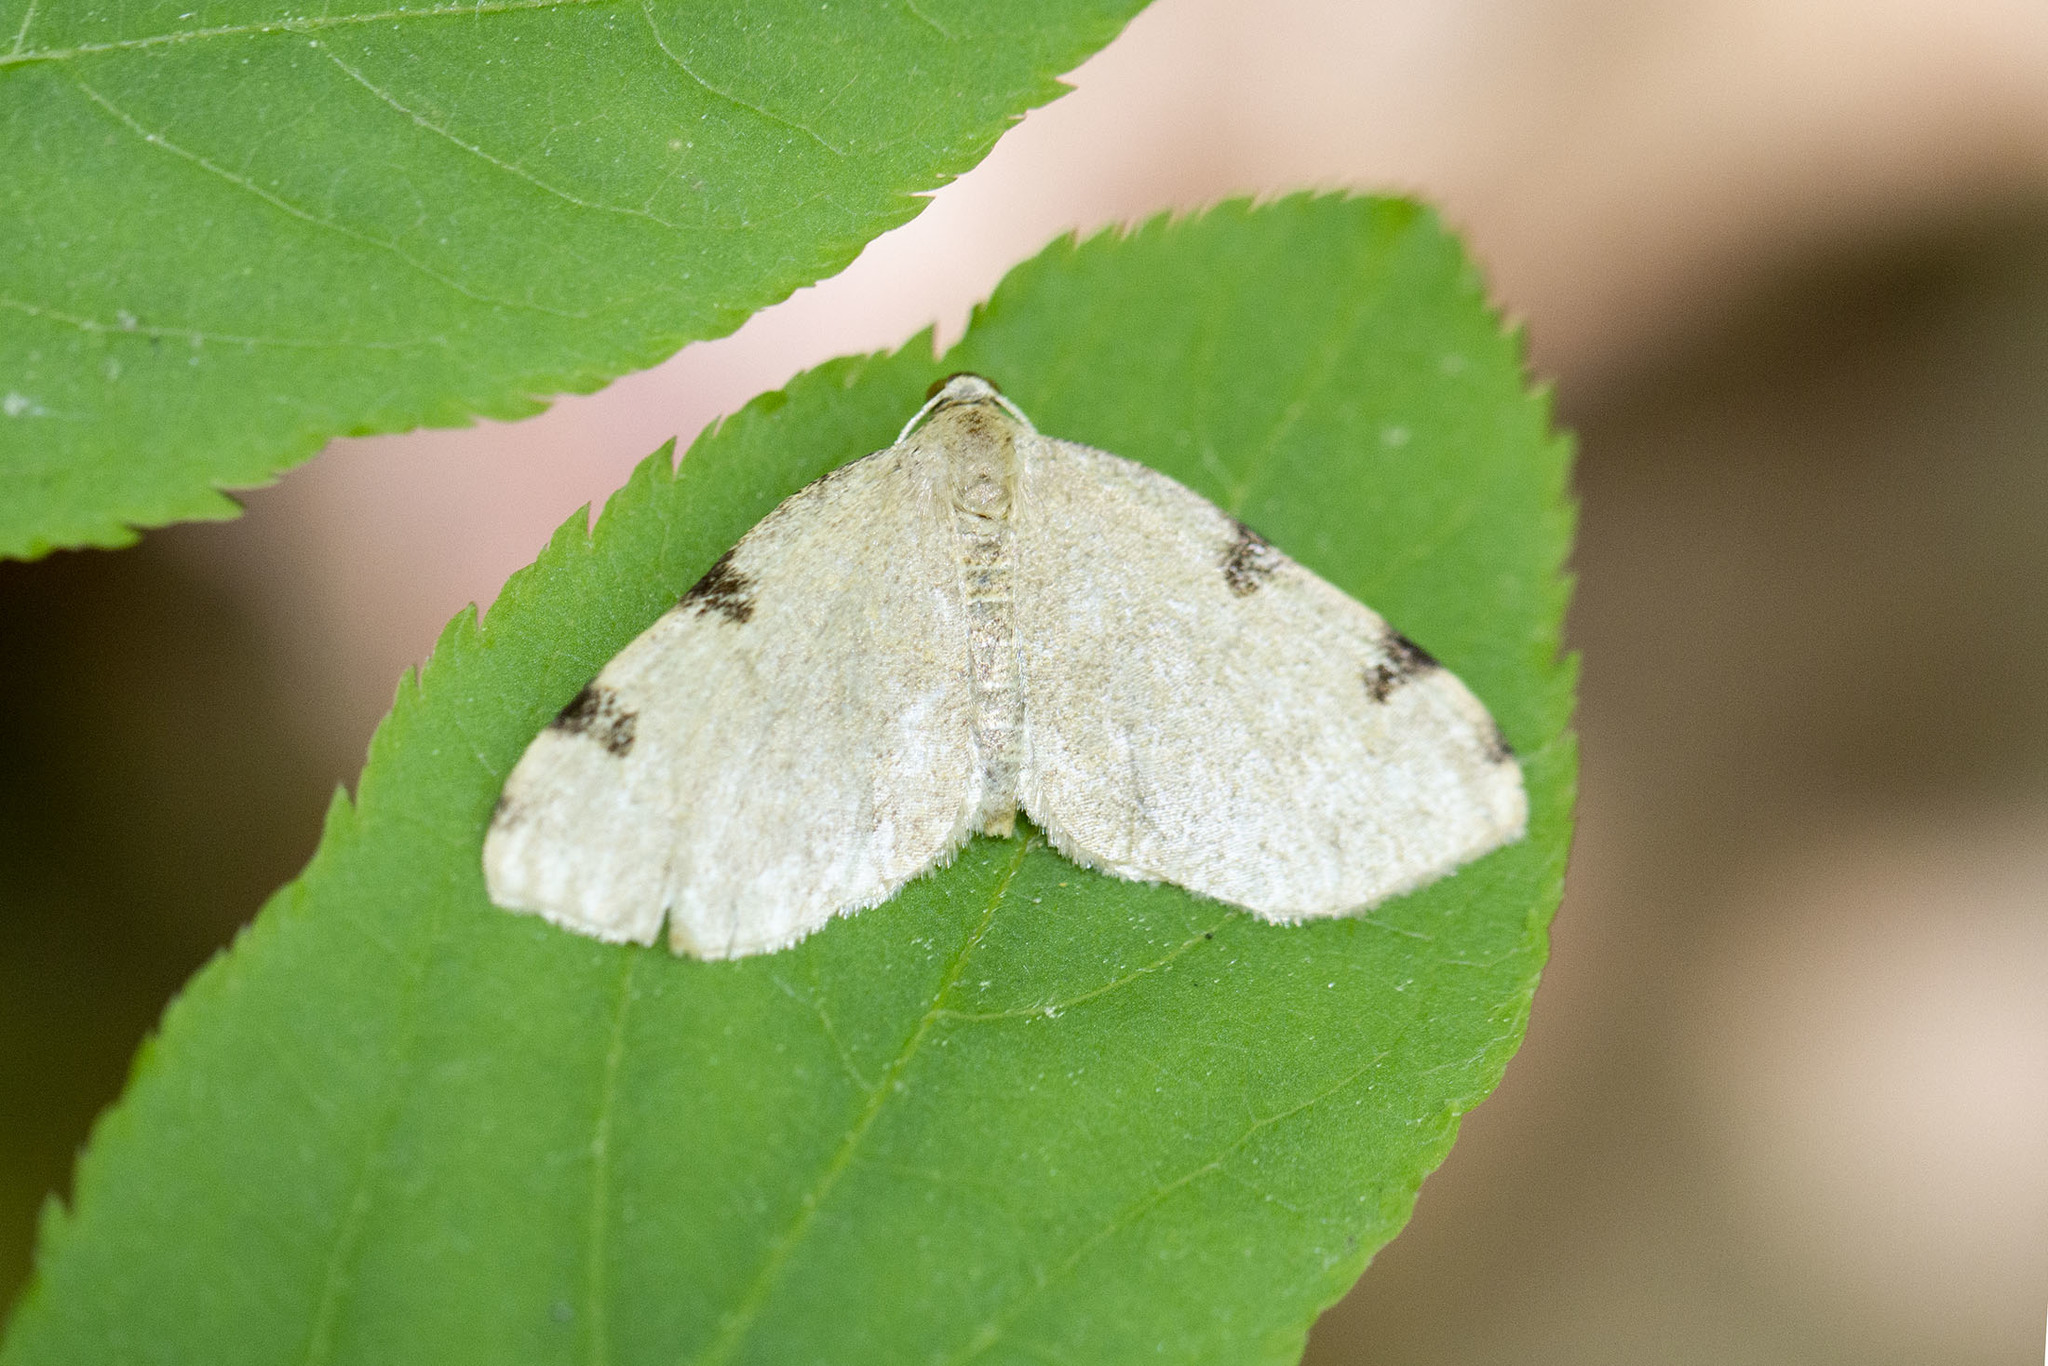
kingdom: Animalia
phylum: Arthropoda
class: Insecta
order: Lepidoptera
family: Geometridae
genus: Heterophleps
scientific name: Heterophleps triguttaria
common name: Three-spotted fillip
